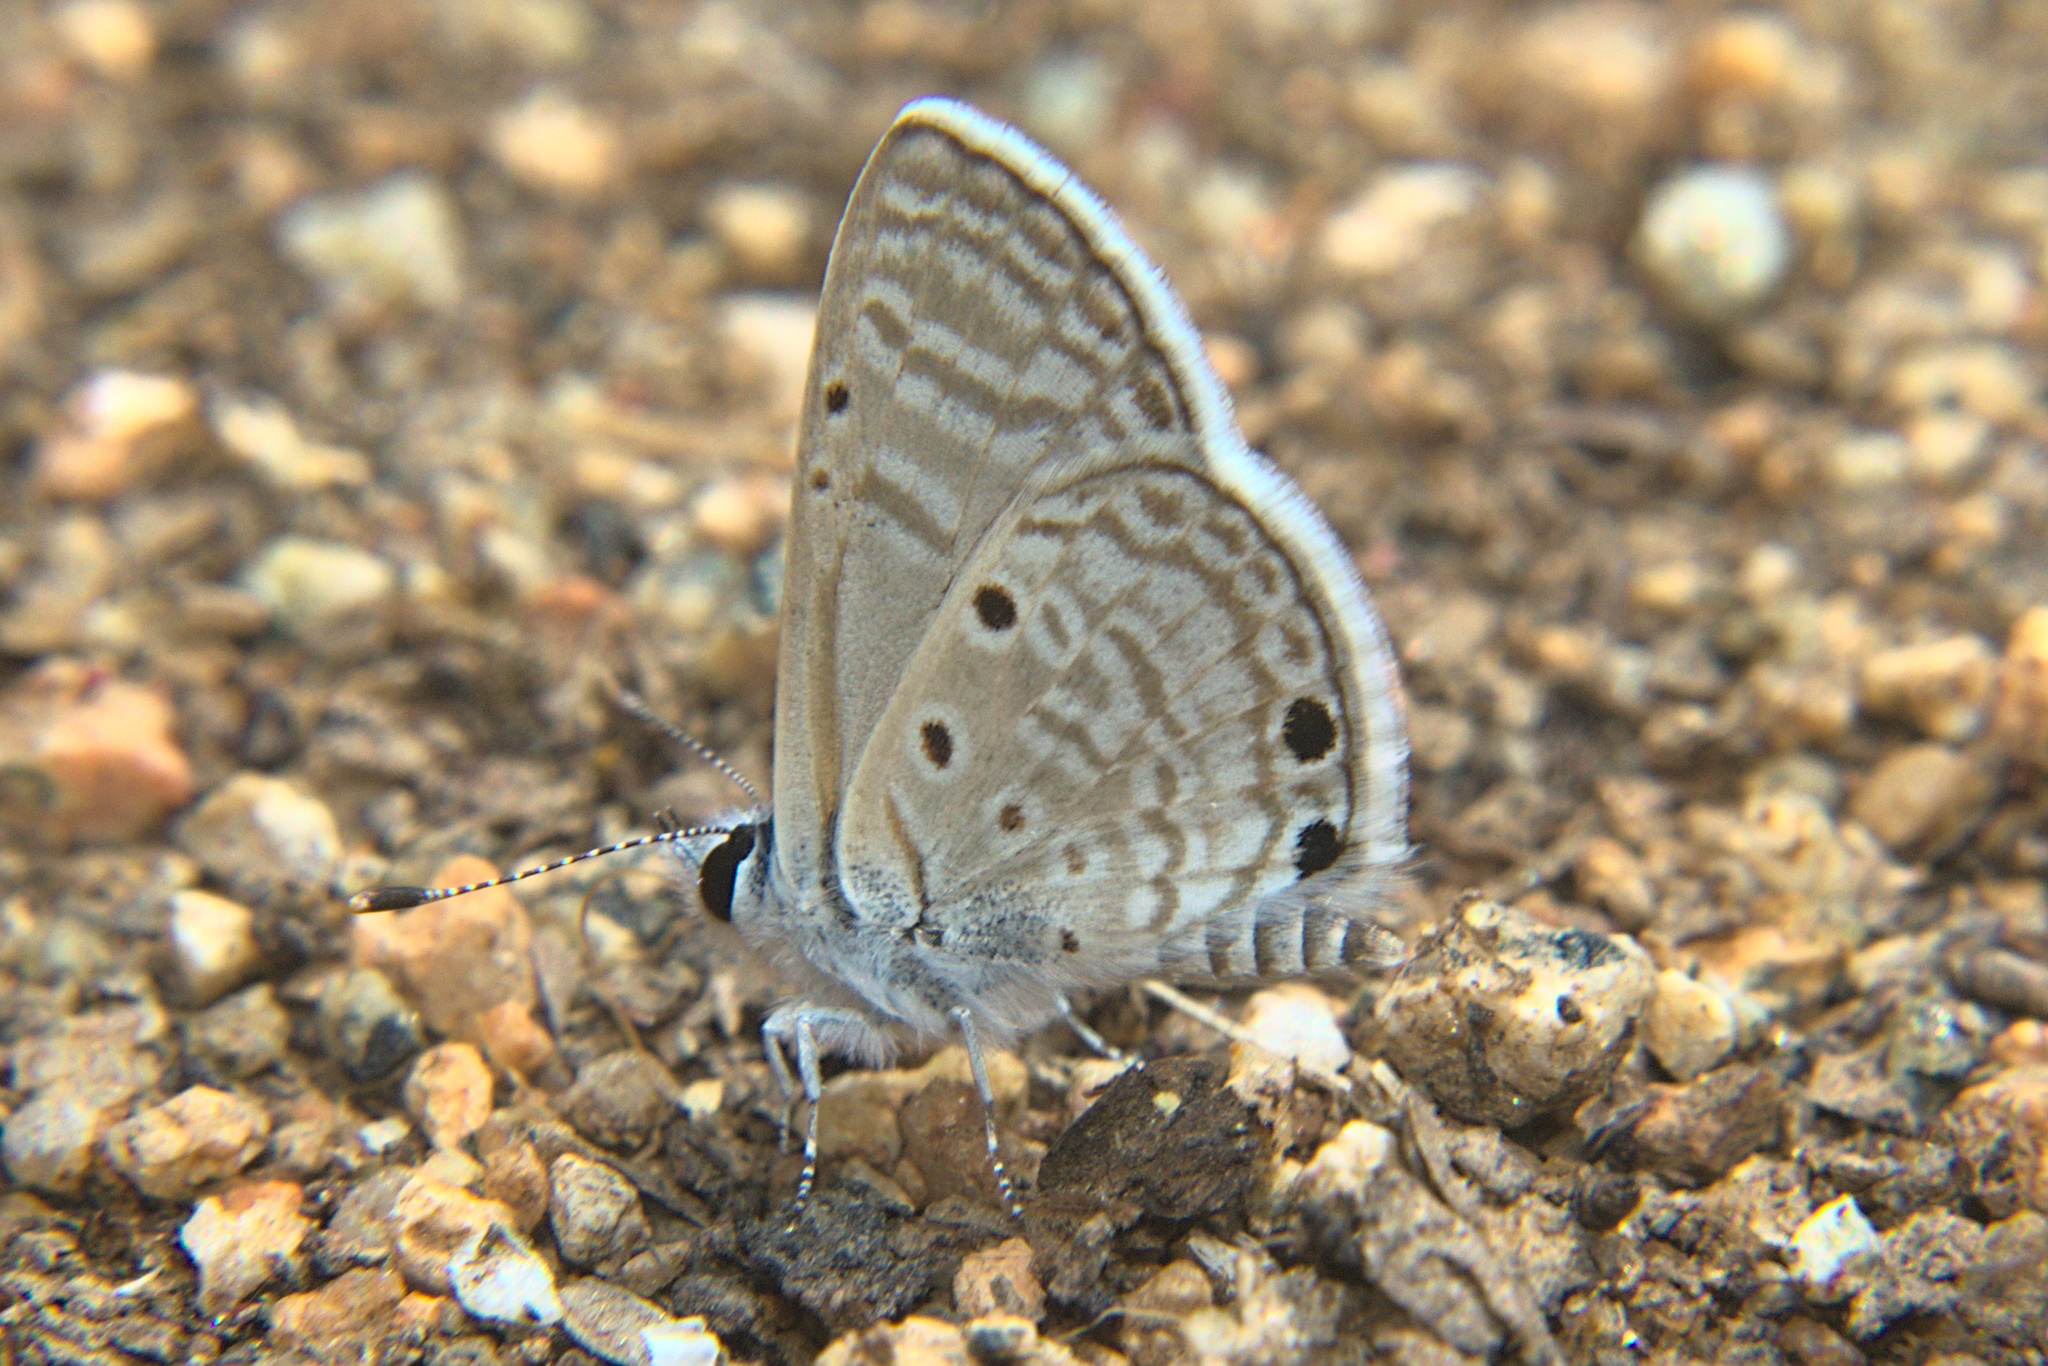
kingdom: Animalia
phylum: Arthropoda
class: Insecta
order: Lepidoptera
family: Lycaenidae
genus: Azanus
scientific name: Azanus ubaldus
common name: Desert babul blue
